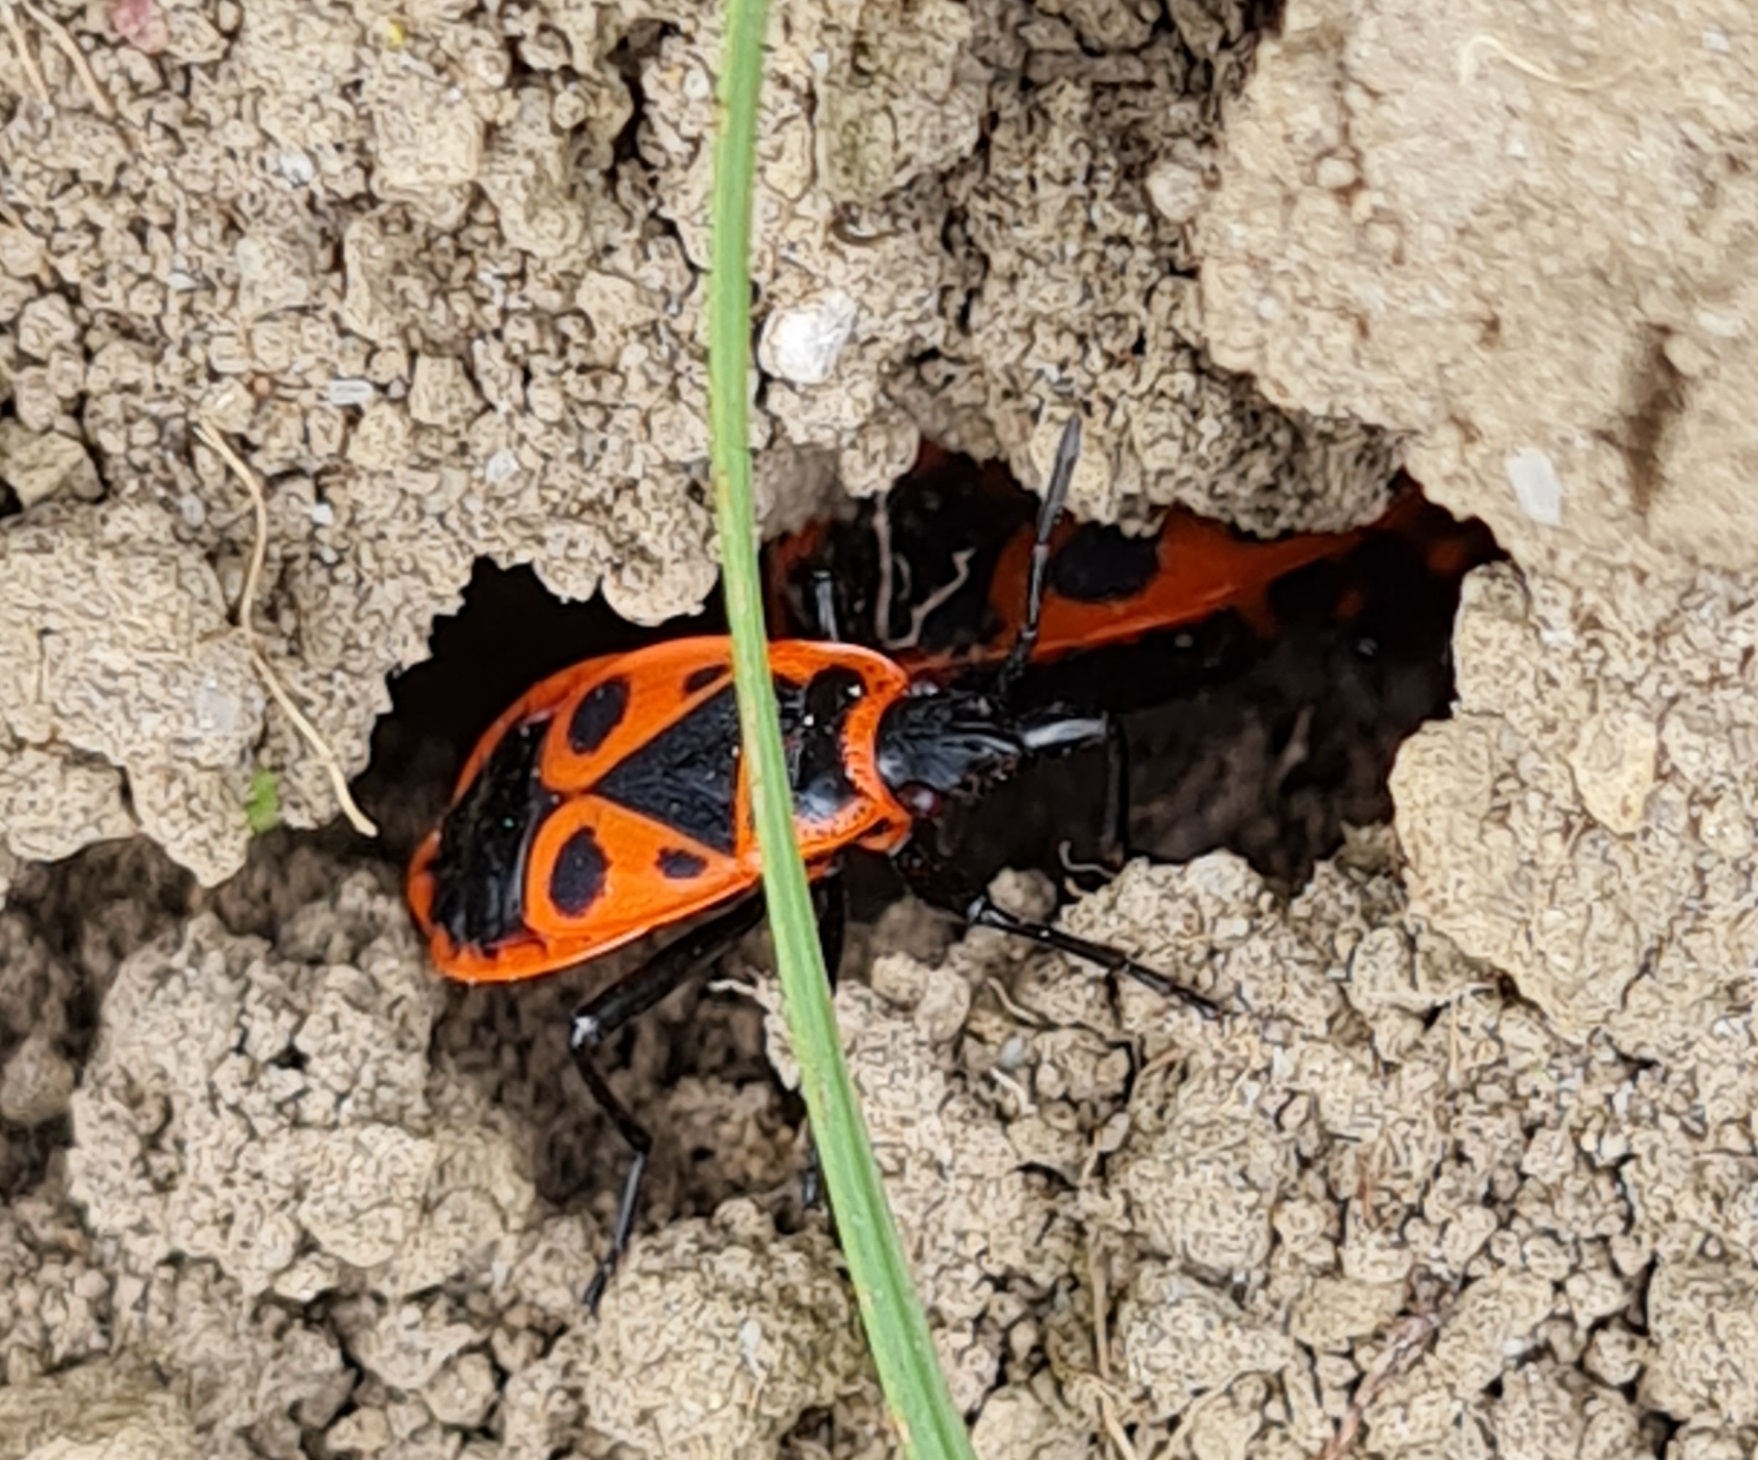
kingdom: Animalia
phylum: Arthropoda
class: Insecta
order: Hemiptera
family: Pyrrhocoridae
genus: Pyrrhocoris
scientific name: Pyrrhocoris apterus
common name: Firebug
